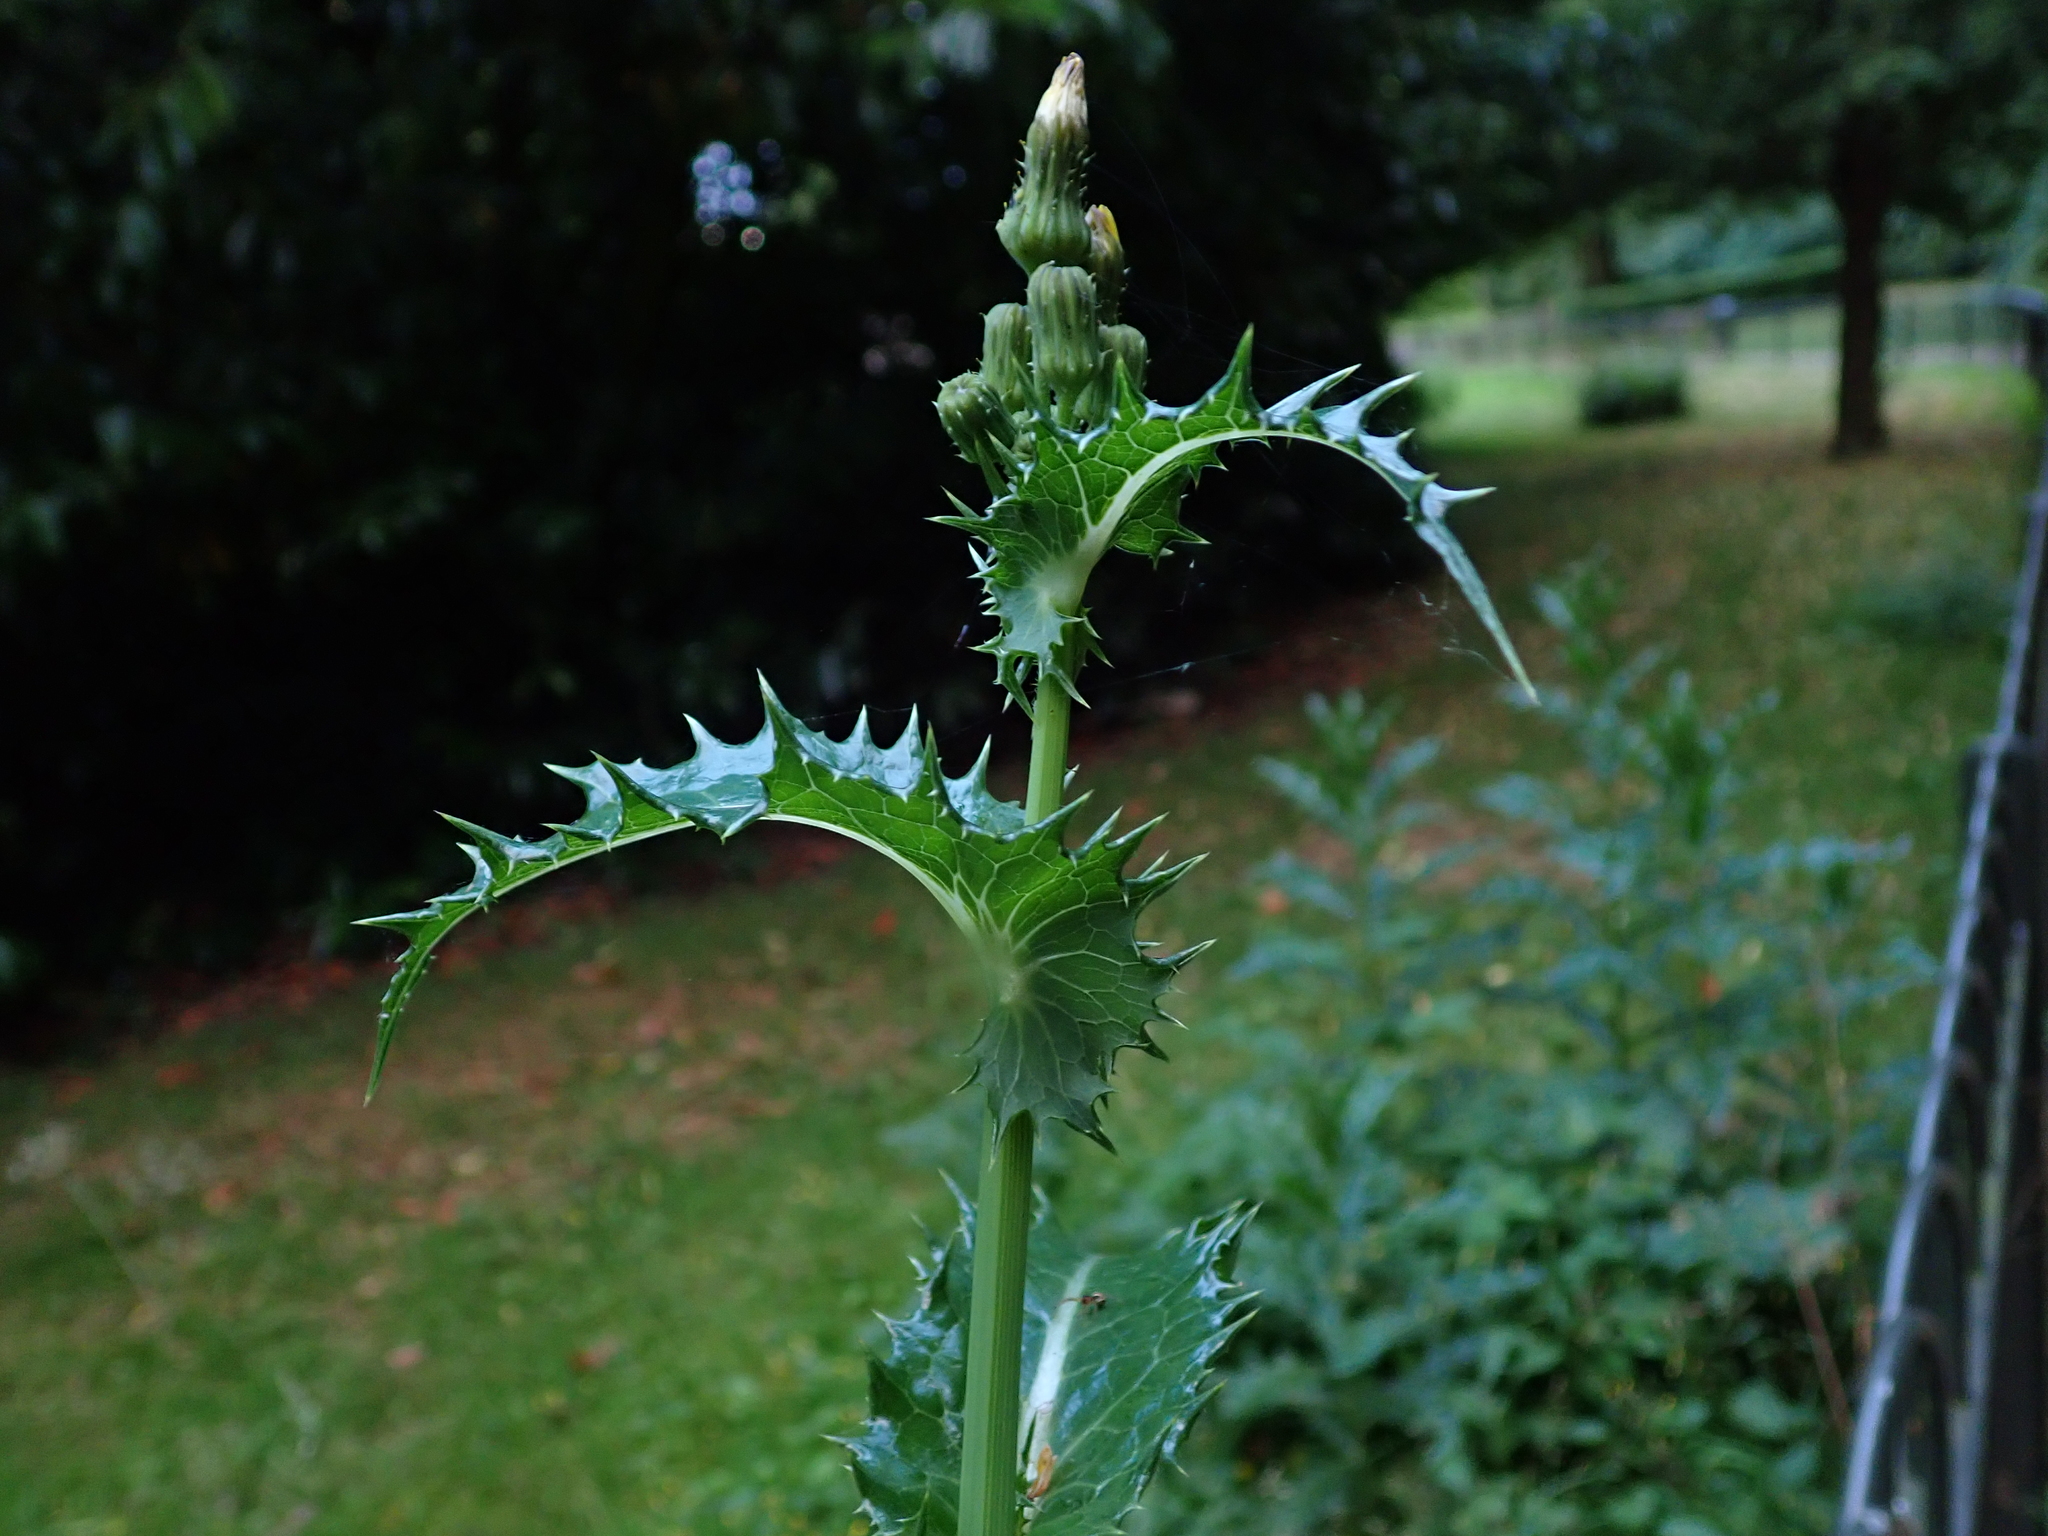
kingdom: Plantae
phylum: Tracheophyta
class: Magnoliopsida
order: Asterales
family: Asteraceae
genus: Sonchus
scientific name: Sonchus asper
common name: Prickly sow-thistle
